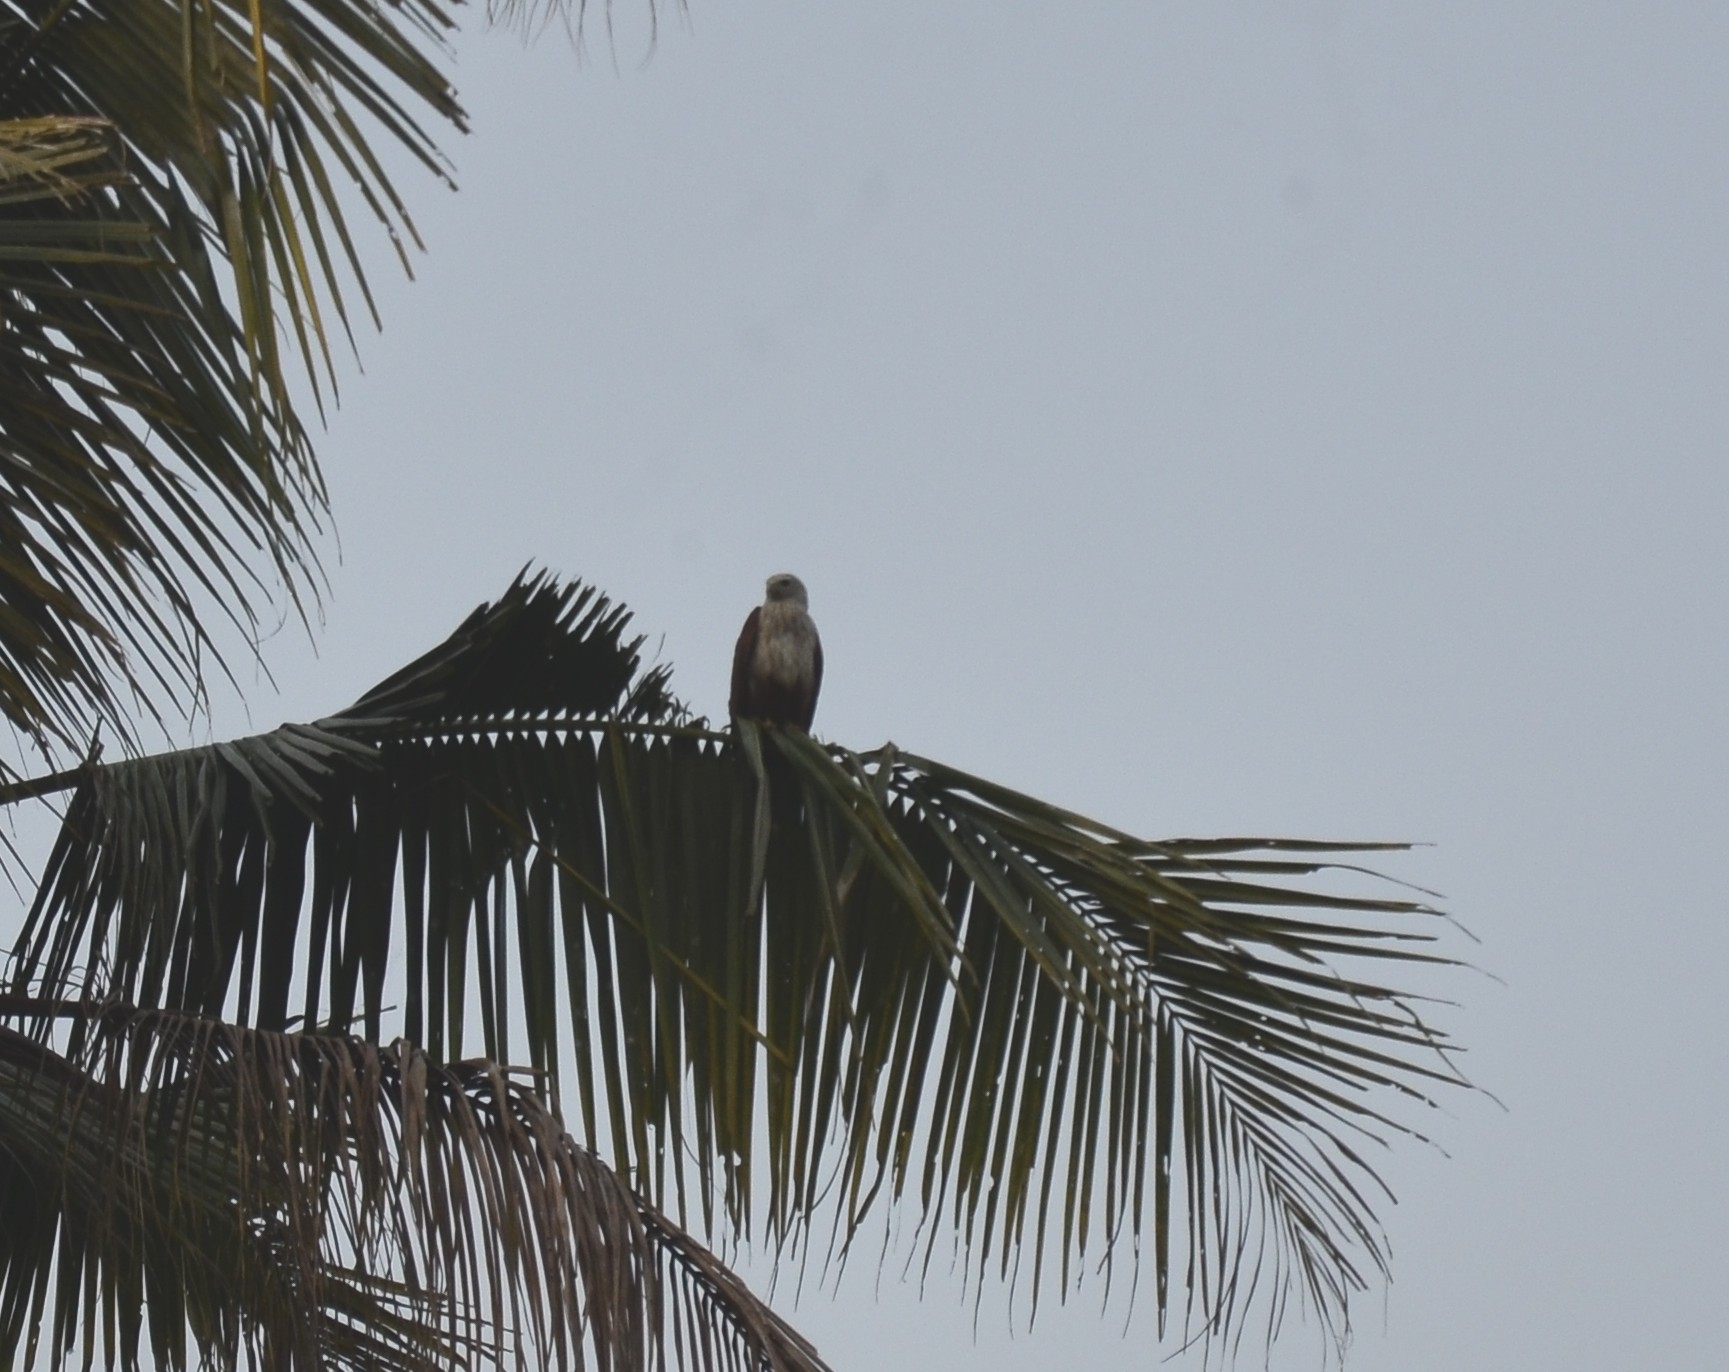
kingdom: Animalia
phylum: Chordata
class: Aves
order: Accipitriformes
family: Accipitridae
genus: Haliastur
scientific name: Haliastur indus
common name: Brahminy kite
